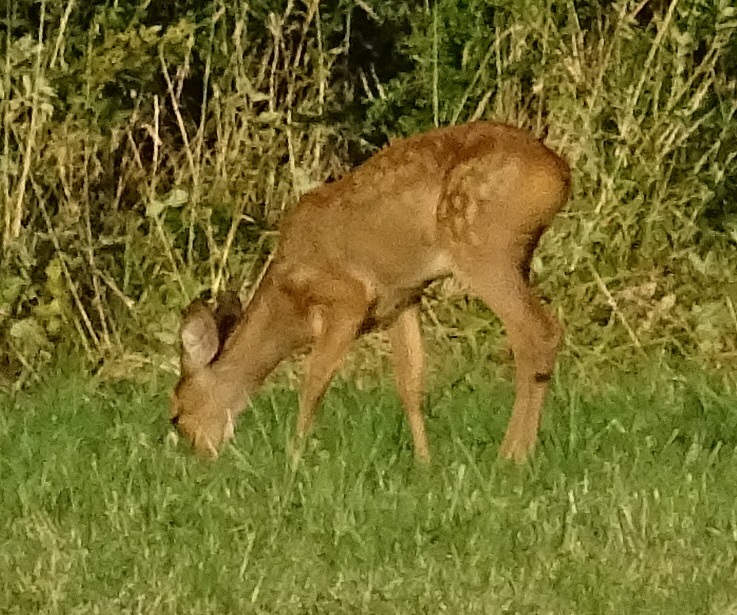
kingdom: Animalia
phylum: Chordata
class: Mammalia
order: Artiodactyla
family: Cervidae
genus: Capreolus
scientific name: Capreolus capreolus
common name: Western roe deer
